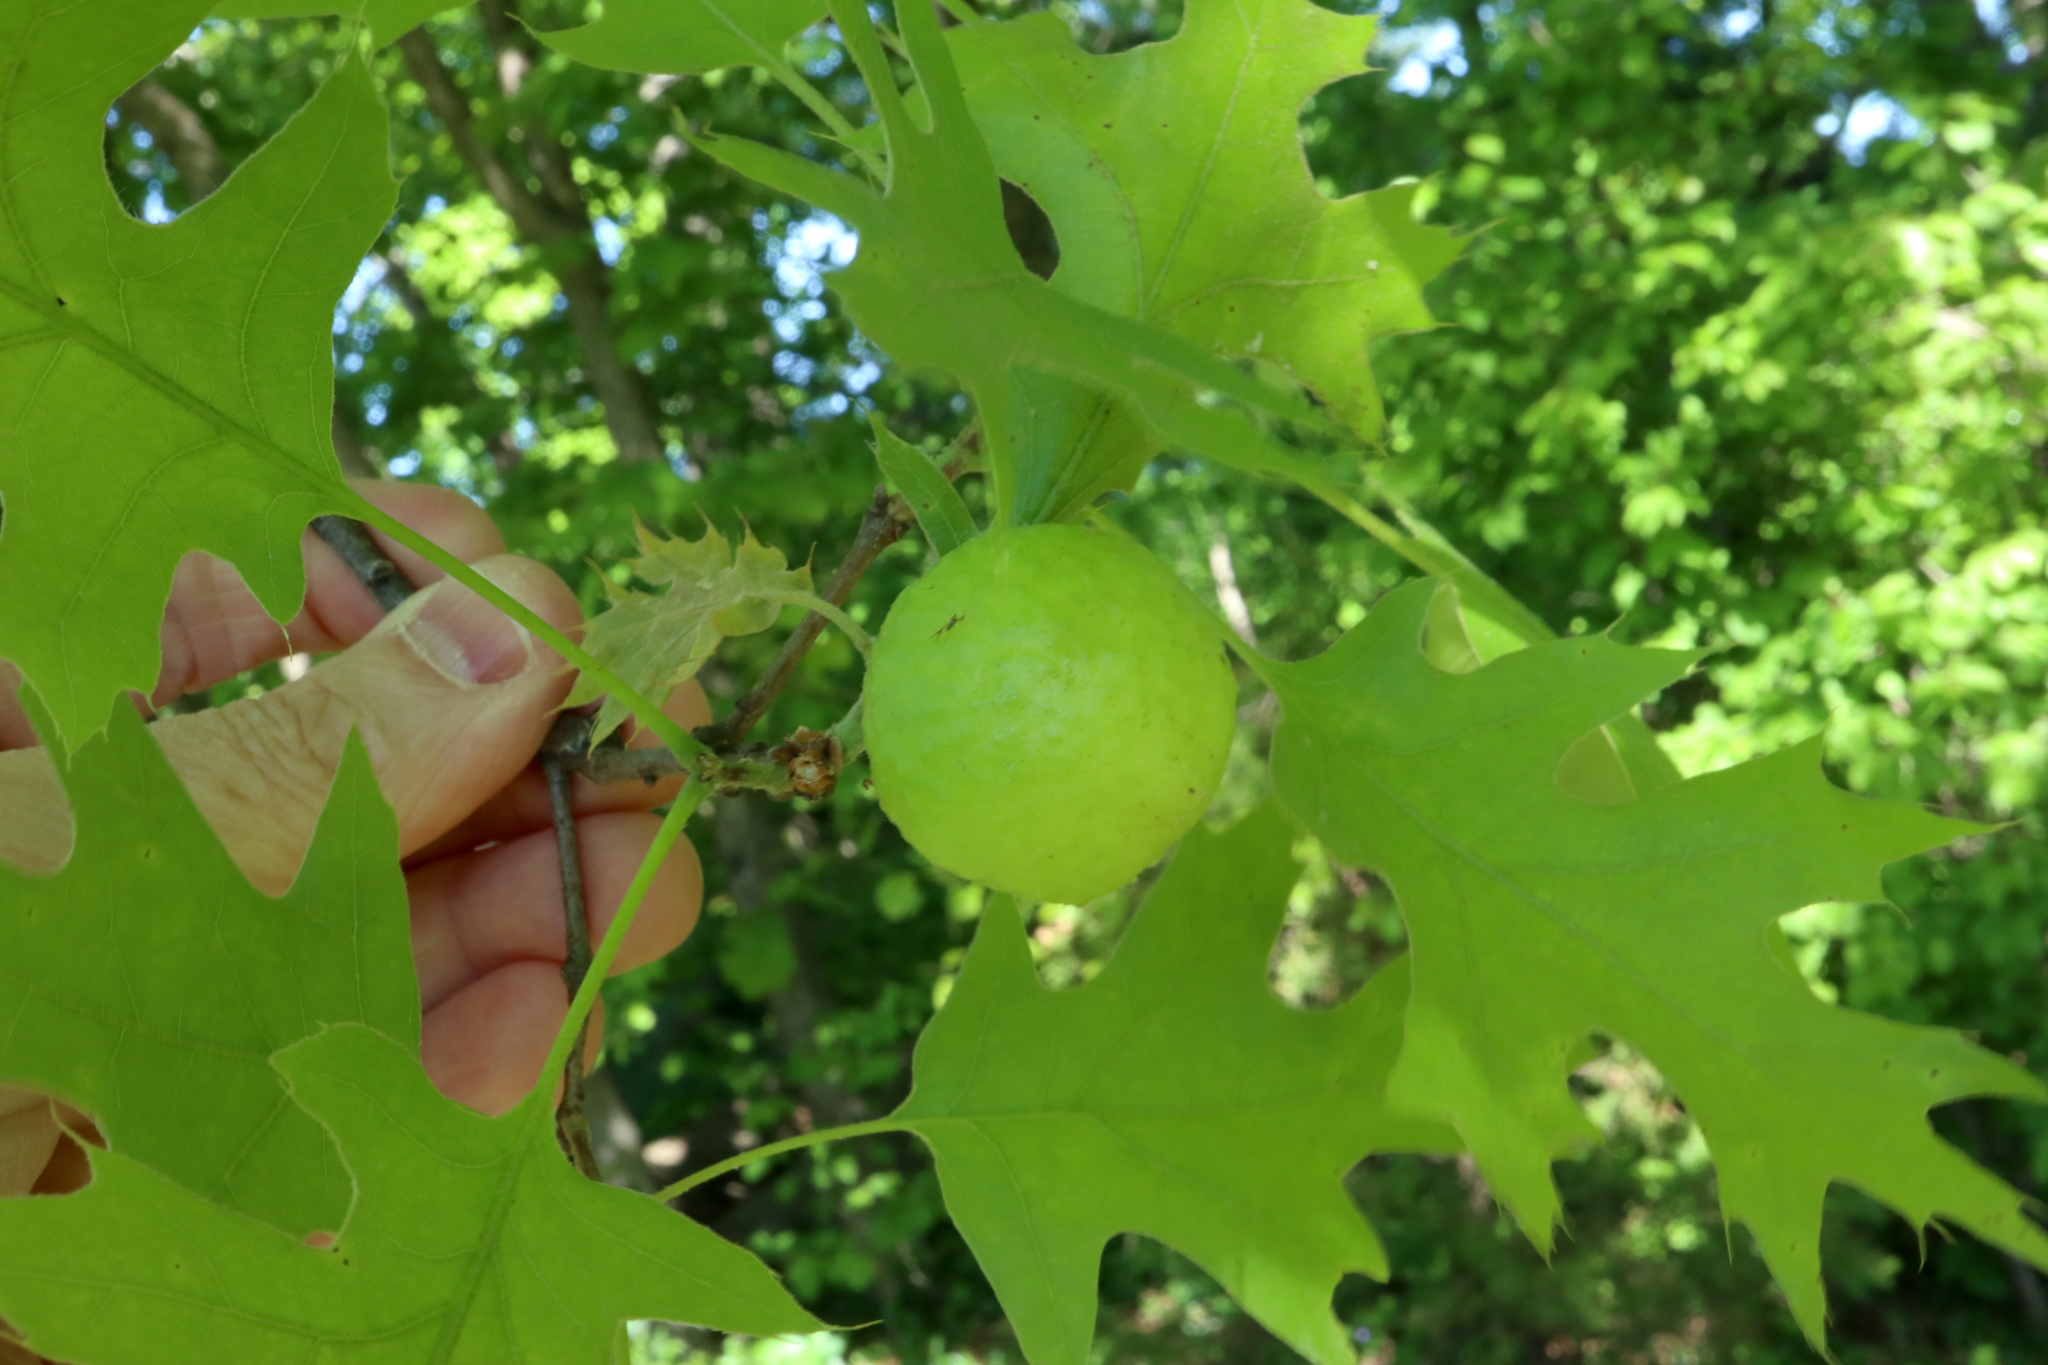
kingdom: Animalia
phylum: Arthropoda
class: Insecta
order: Hymenoptera
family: Cynipidae
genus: Amphibolips
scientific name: Amphibolips
